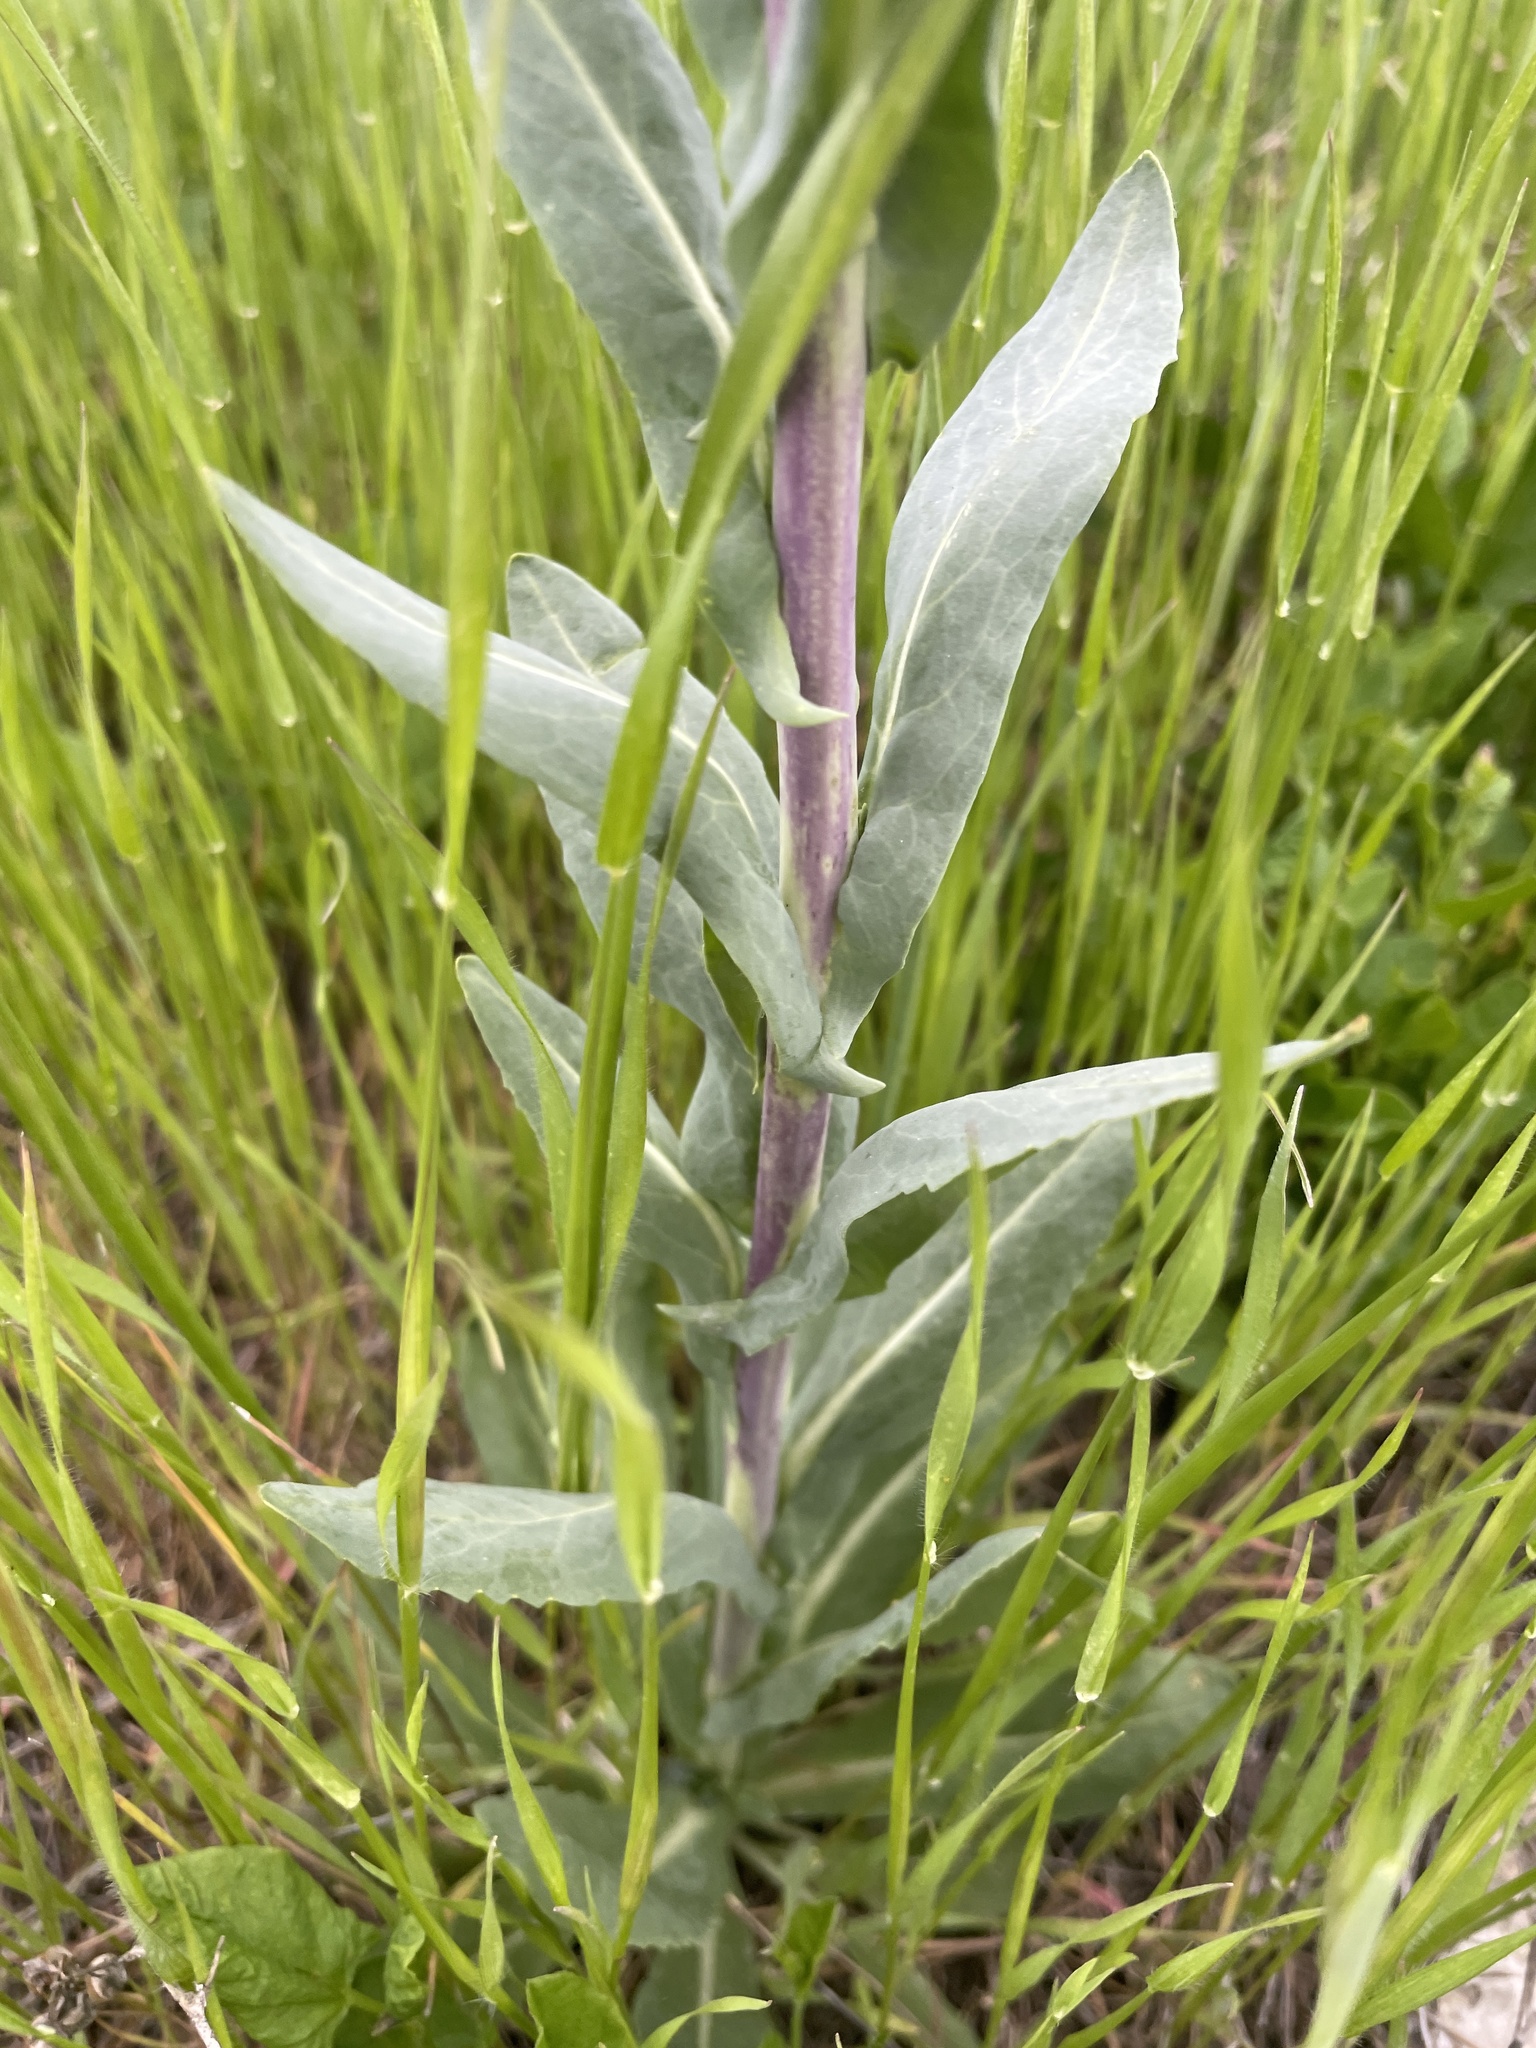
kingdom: Plantae
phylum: Tracheophyta
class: Magnoliopsida
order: Brassicales
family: Brassicaceae
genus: Isatis
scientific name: Isatis tinctoria
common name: Woad
